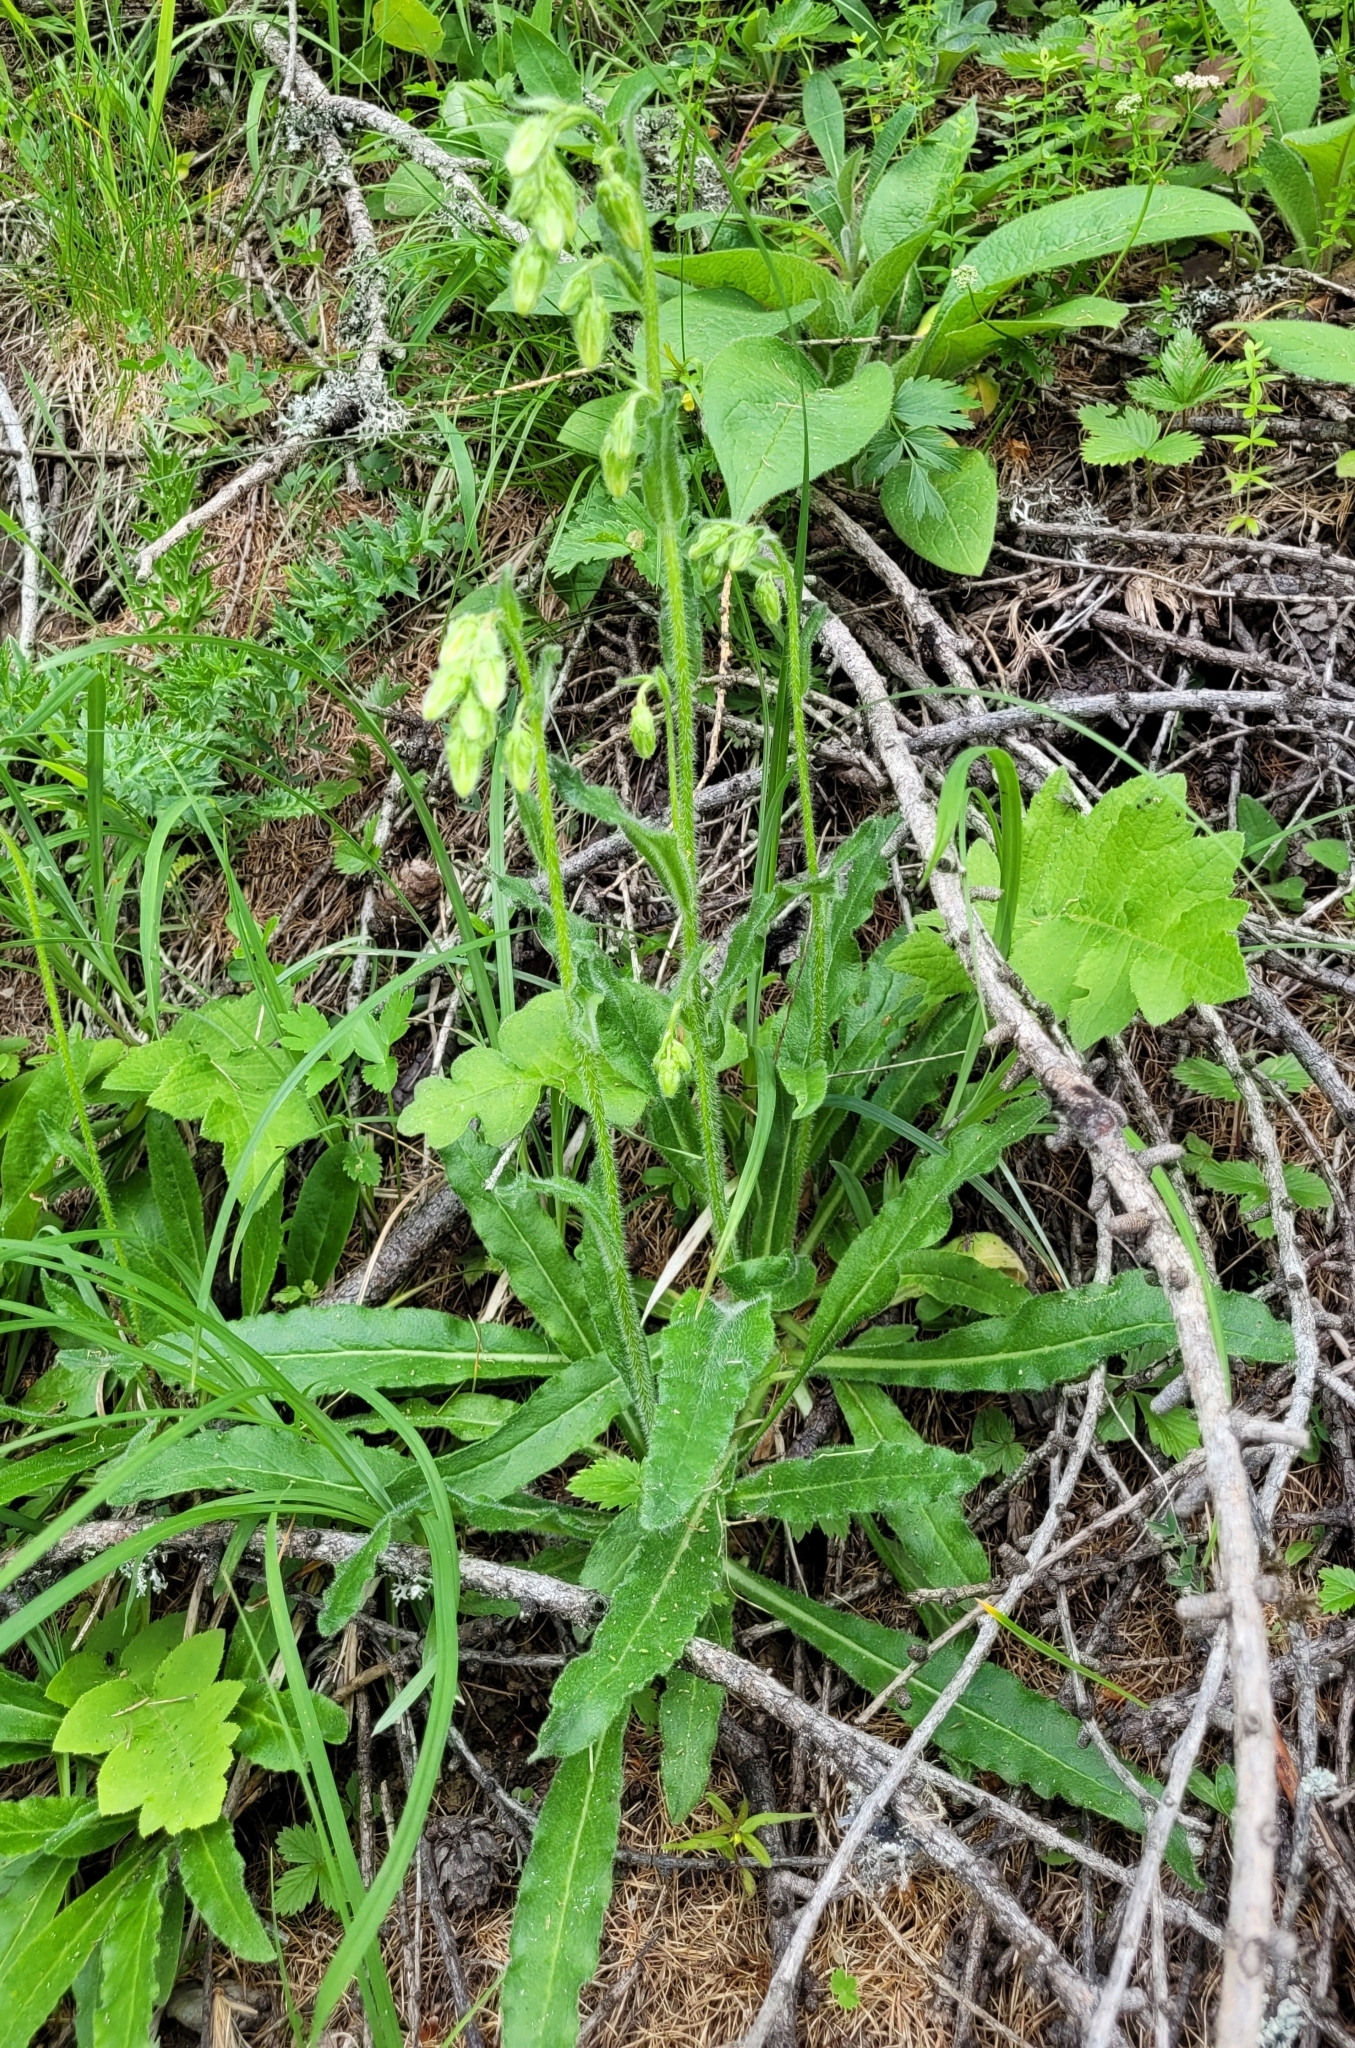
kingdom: Plantae
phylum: Tracheophyta
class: Magnoliopsida
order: Asterales
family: Campanulaceae
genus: Campanula
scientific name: Campanula barbata
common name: Bearded bellflower
